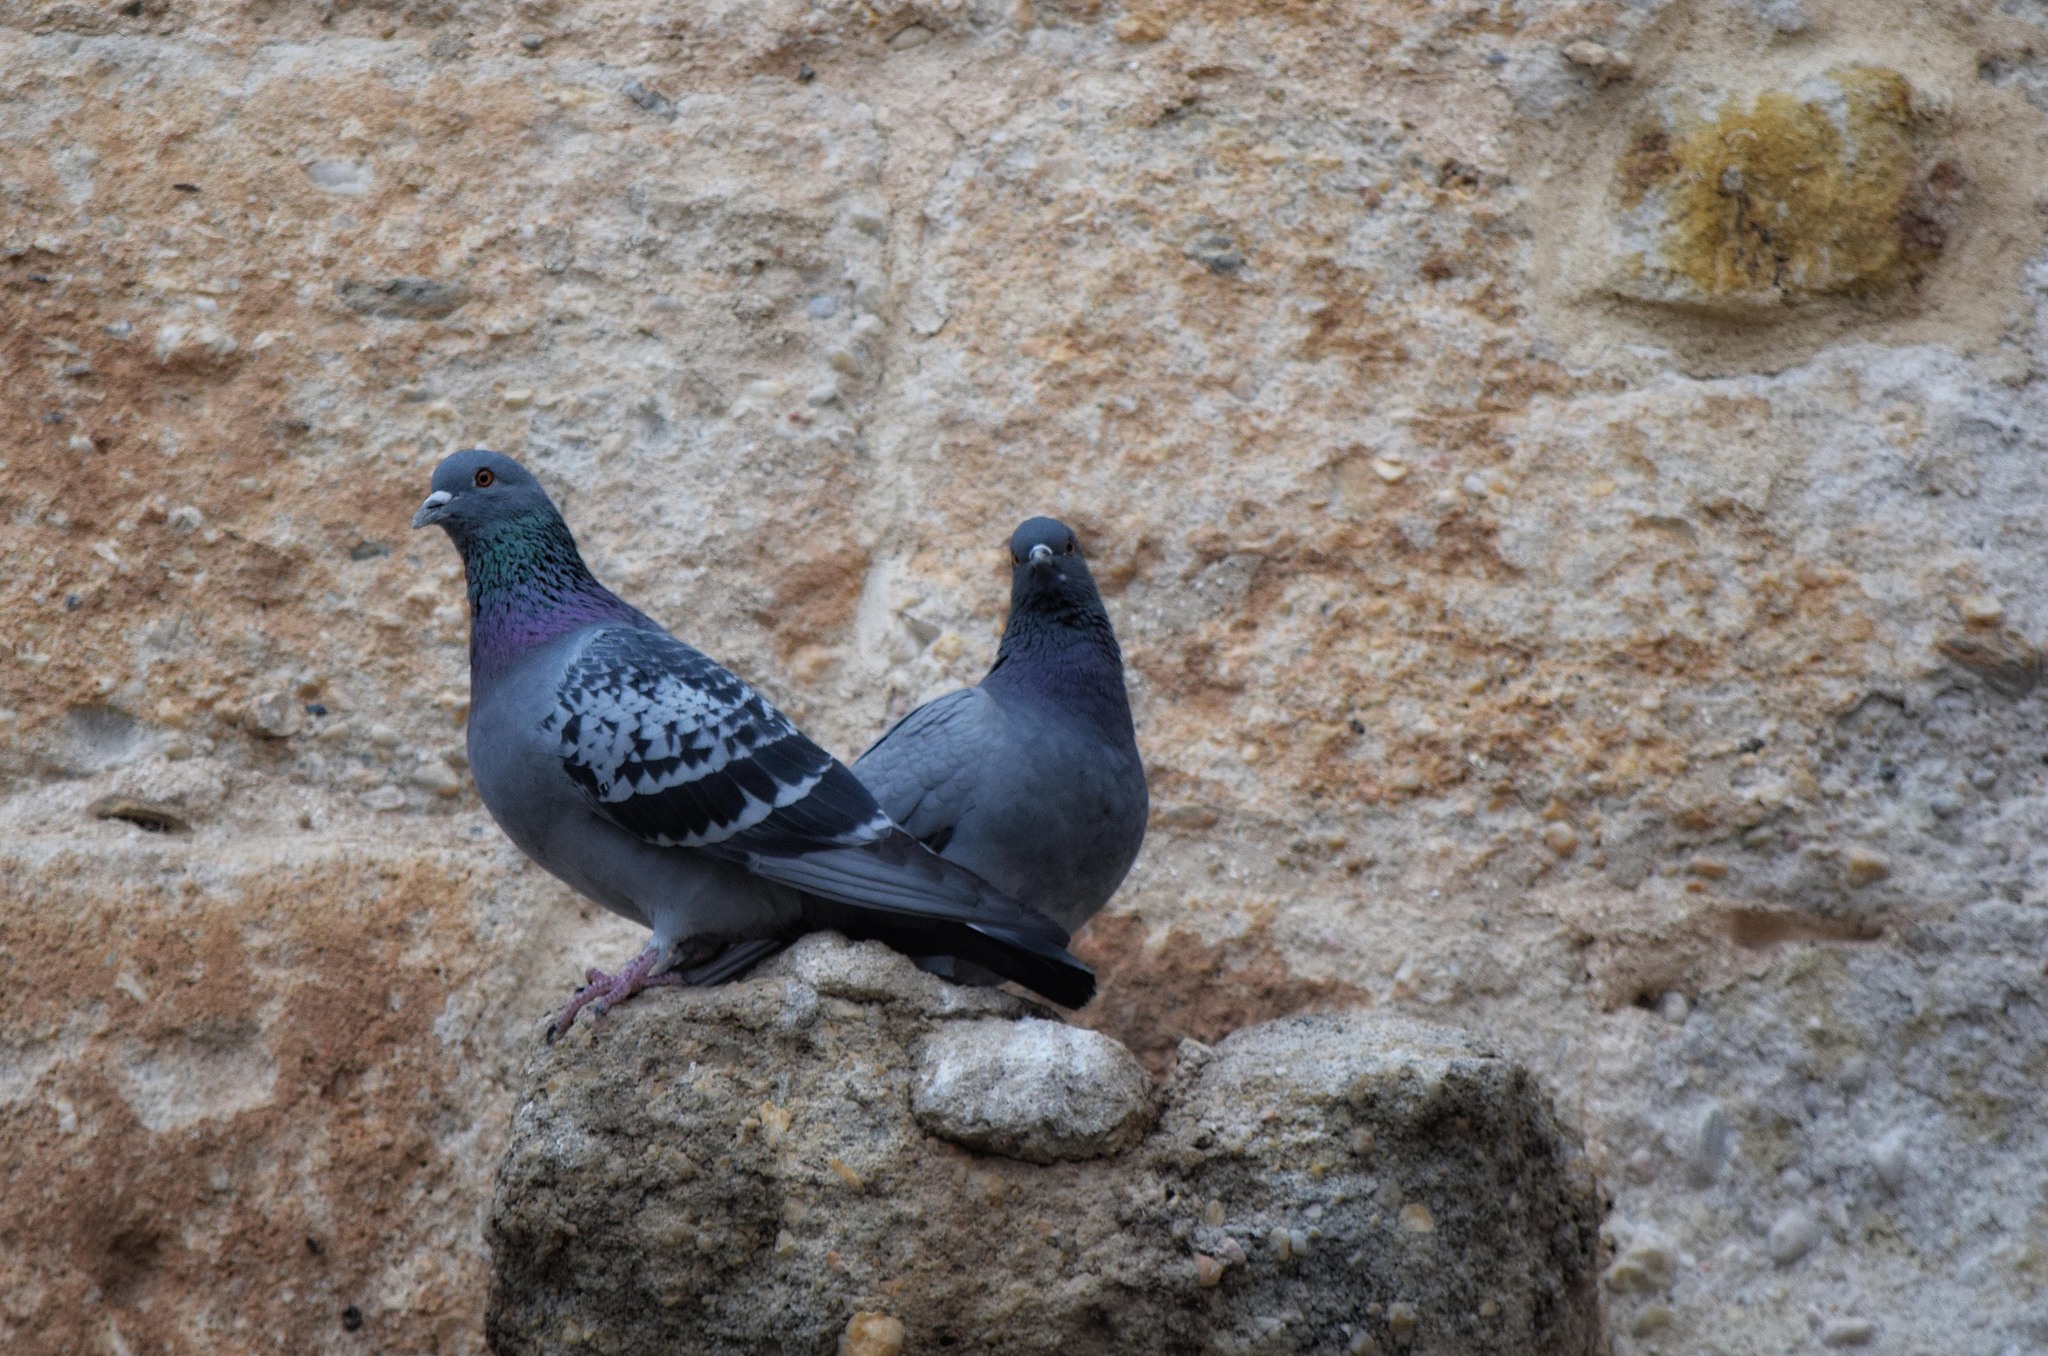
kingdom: Animalia
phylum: Chordata
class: Aves
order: Columbiformes
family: Columbidae
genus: Columba
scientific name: Columba livia
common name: Rock pigeon
